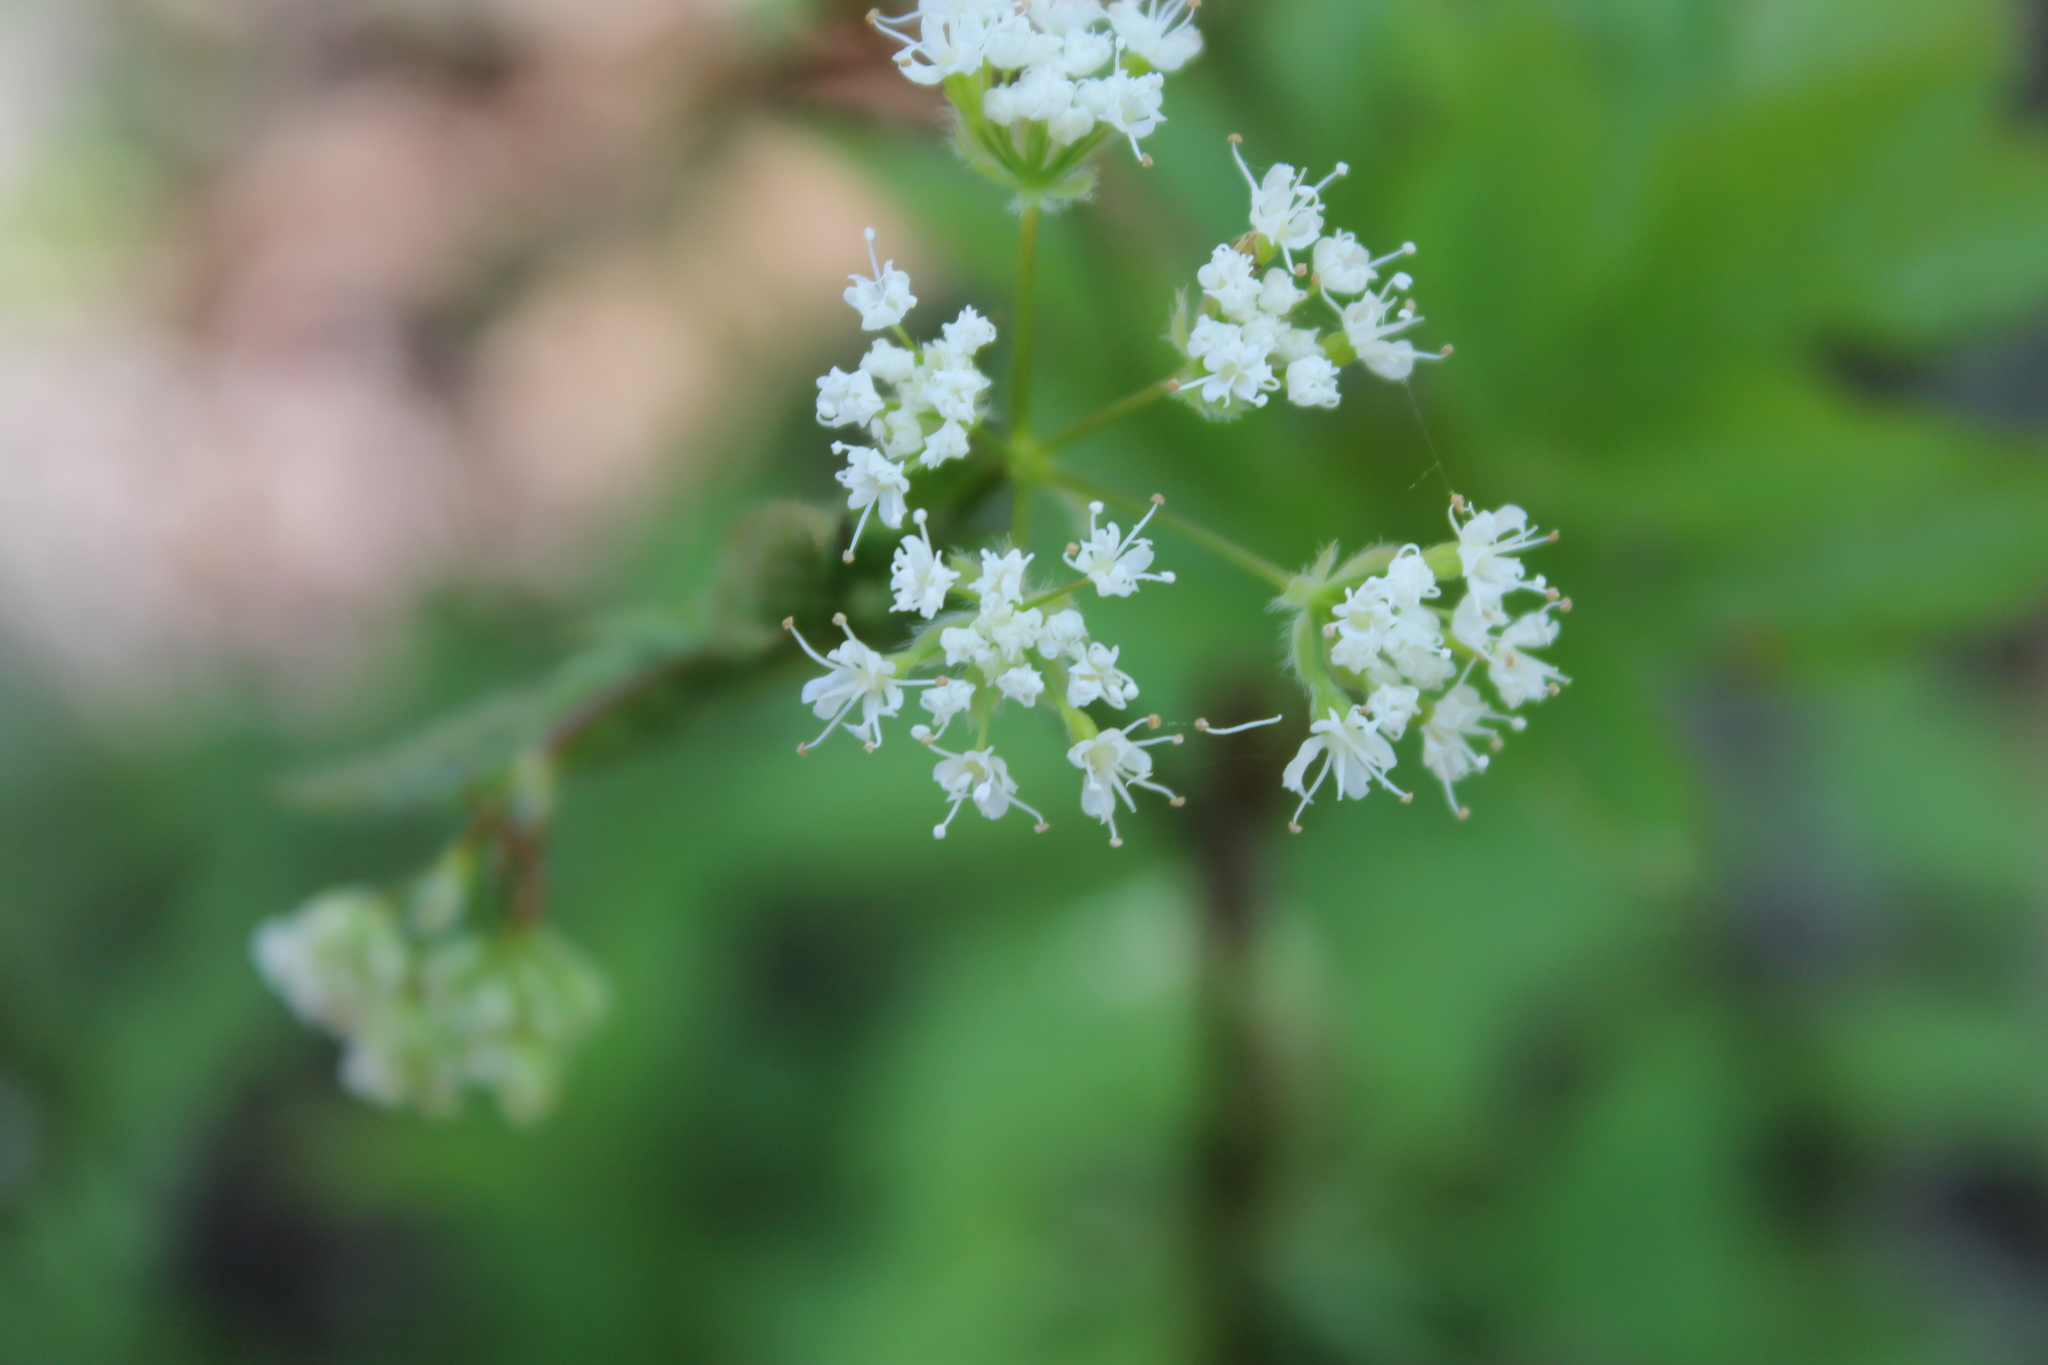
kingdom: Plantae
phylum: Tracheophyta
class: Magnoliopsida
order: Apiales
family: Apiaceae
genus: Osmorhiza
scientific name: Osmorhiza longistylis
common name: Smooth sweet cicely
